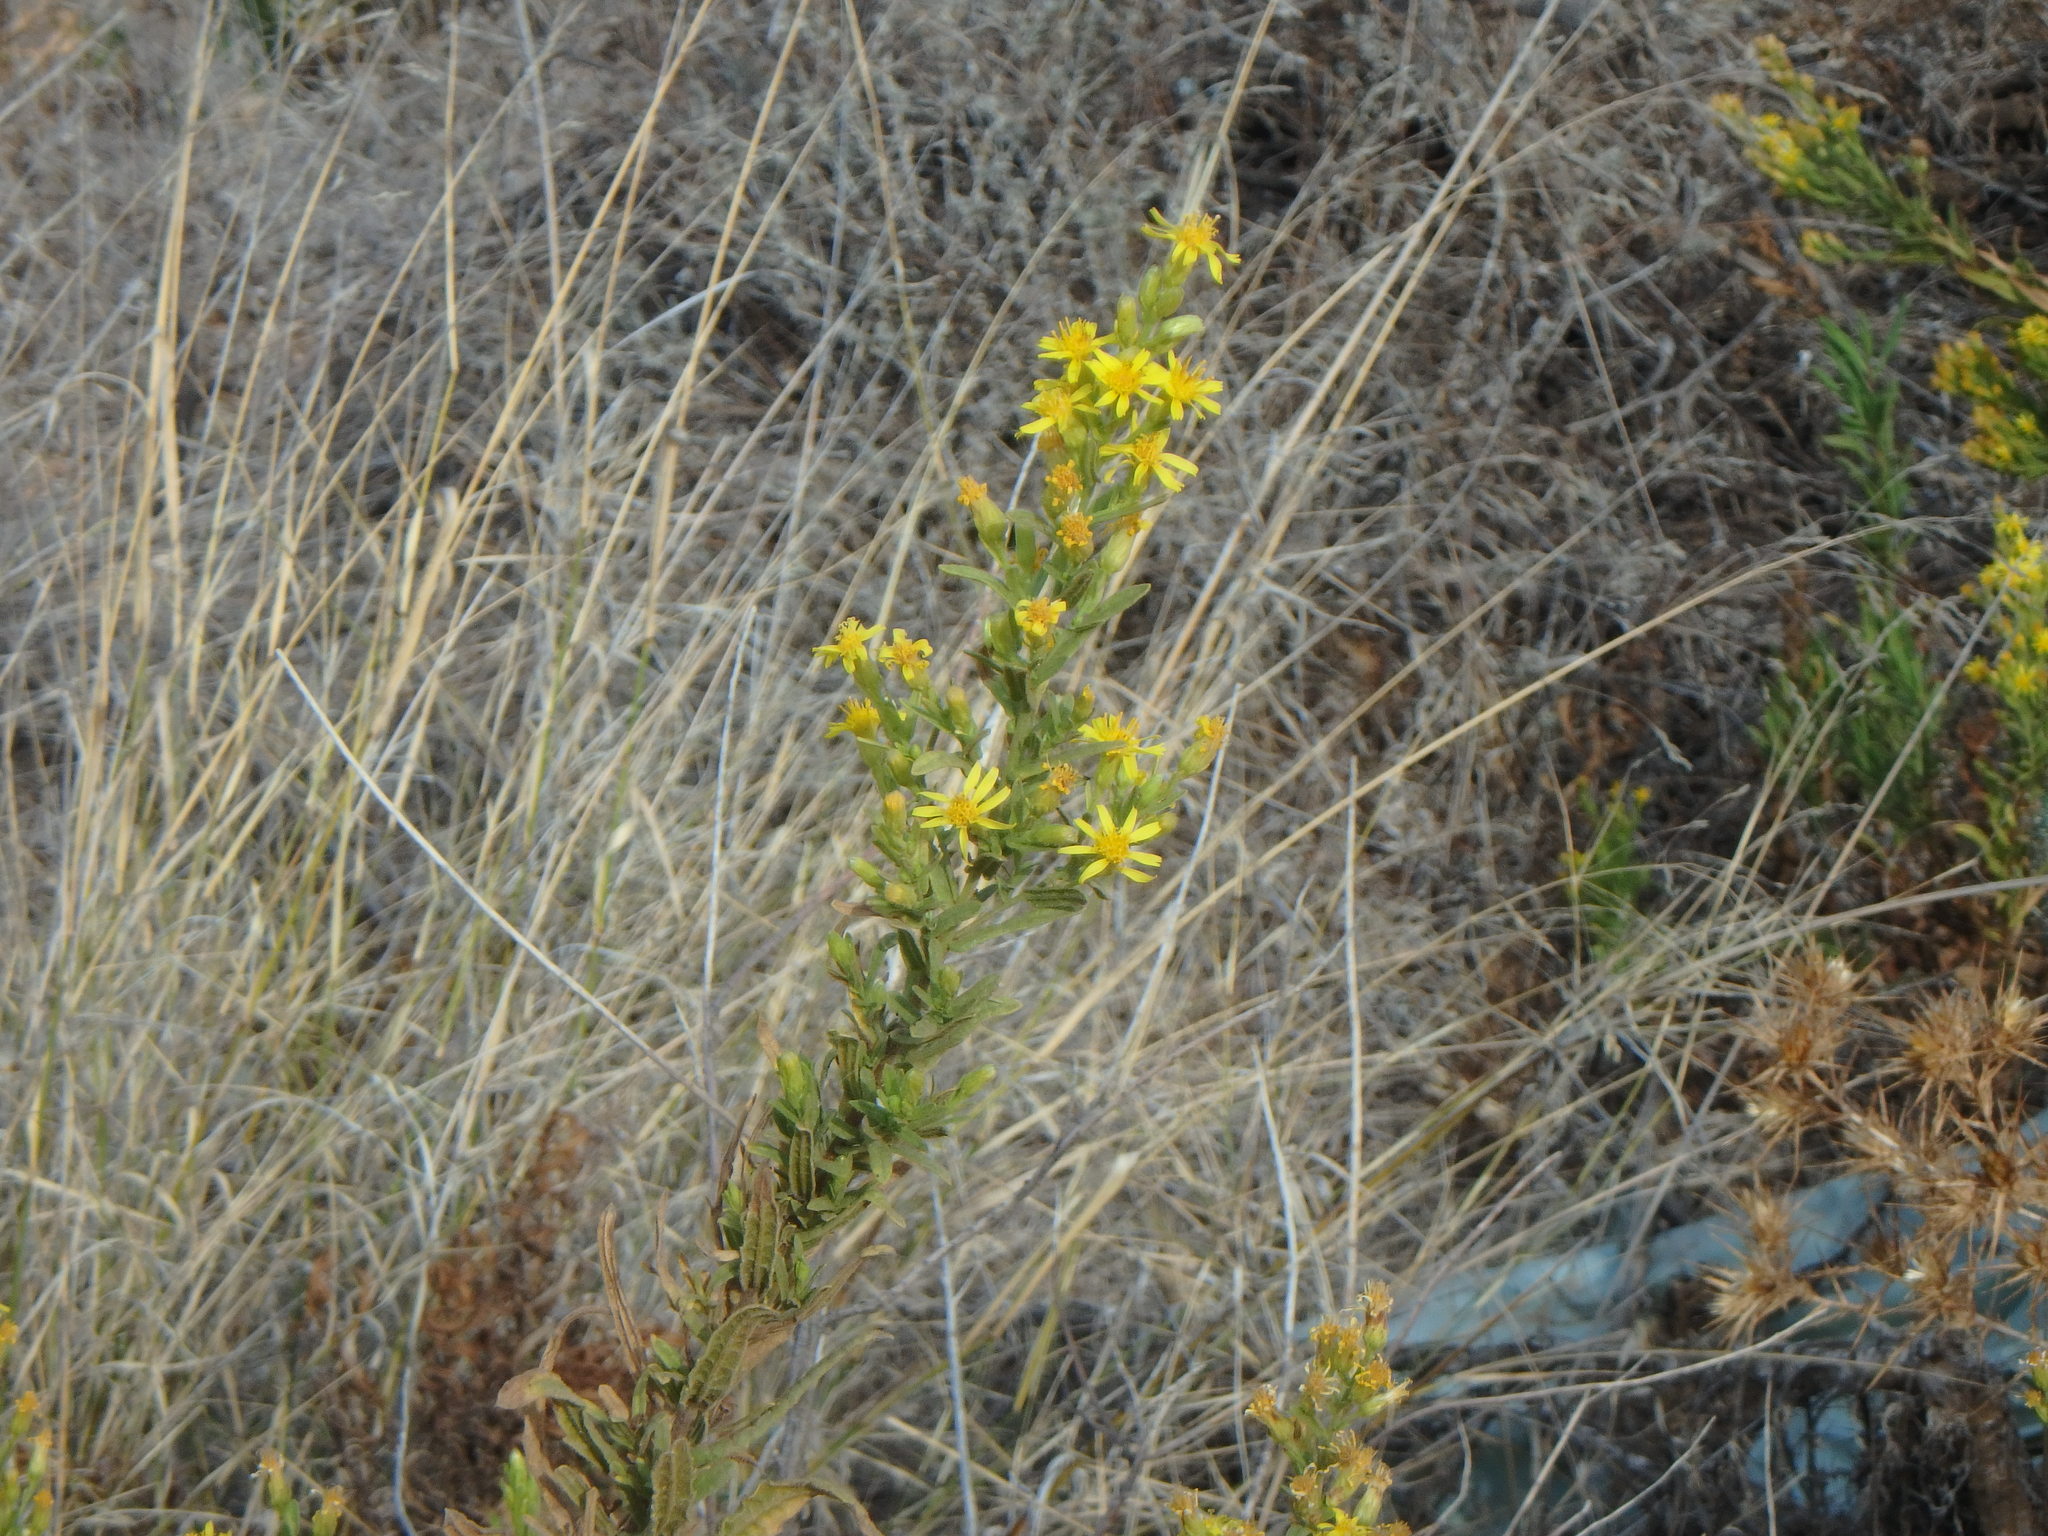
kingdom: Plantae
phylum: Tracheophyta
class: Magnoliopsida
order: Asterales
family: Asteraceae
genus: Dittrichia
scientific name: Dittrichia viscosa
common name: Woody fleabane
